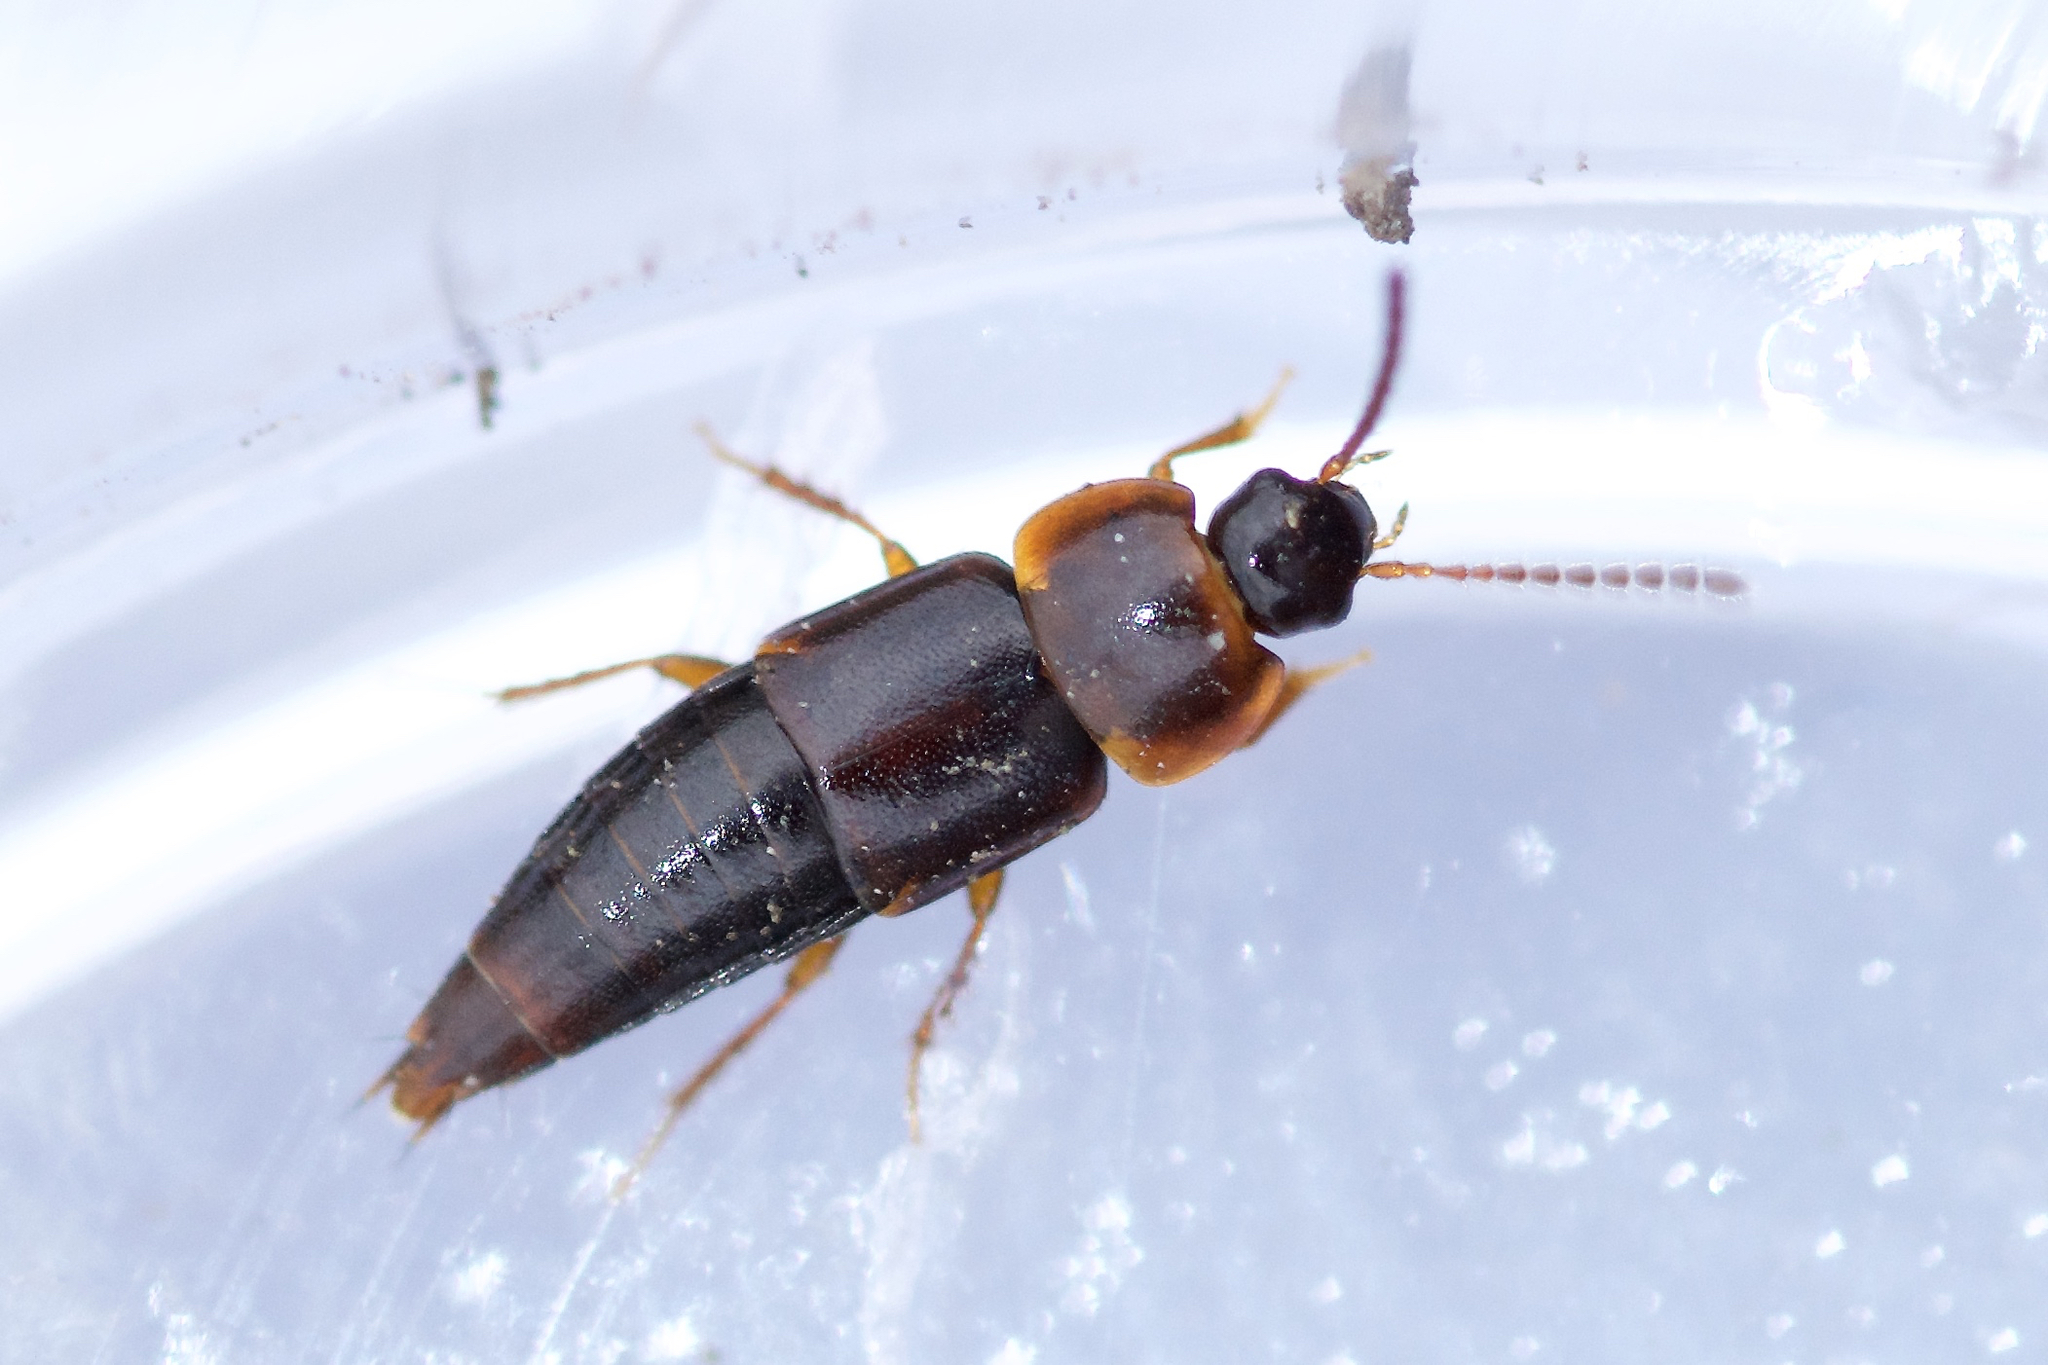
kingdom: Animalia
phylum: Arthropoda
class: Insecta
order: Coleoptera
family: Staphylinidae
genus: Tachinus
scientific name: Tachinus corticinus
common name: Staph beetle
